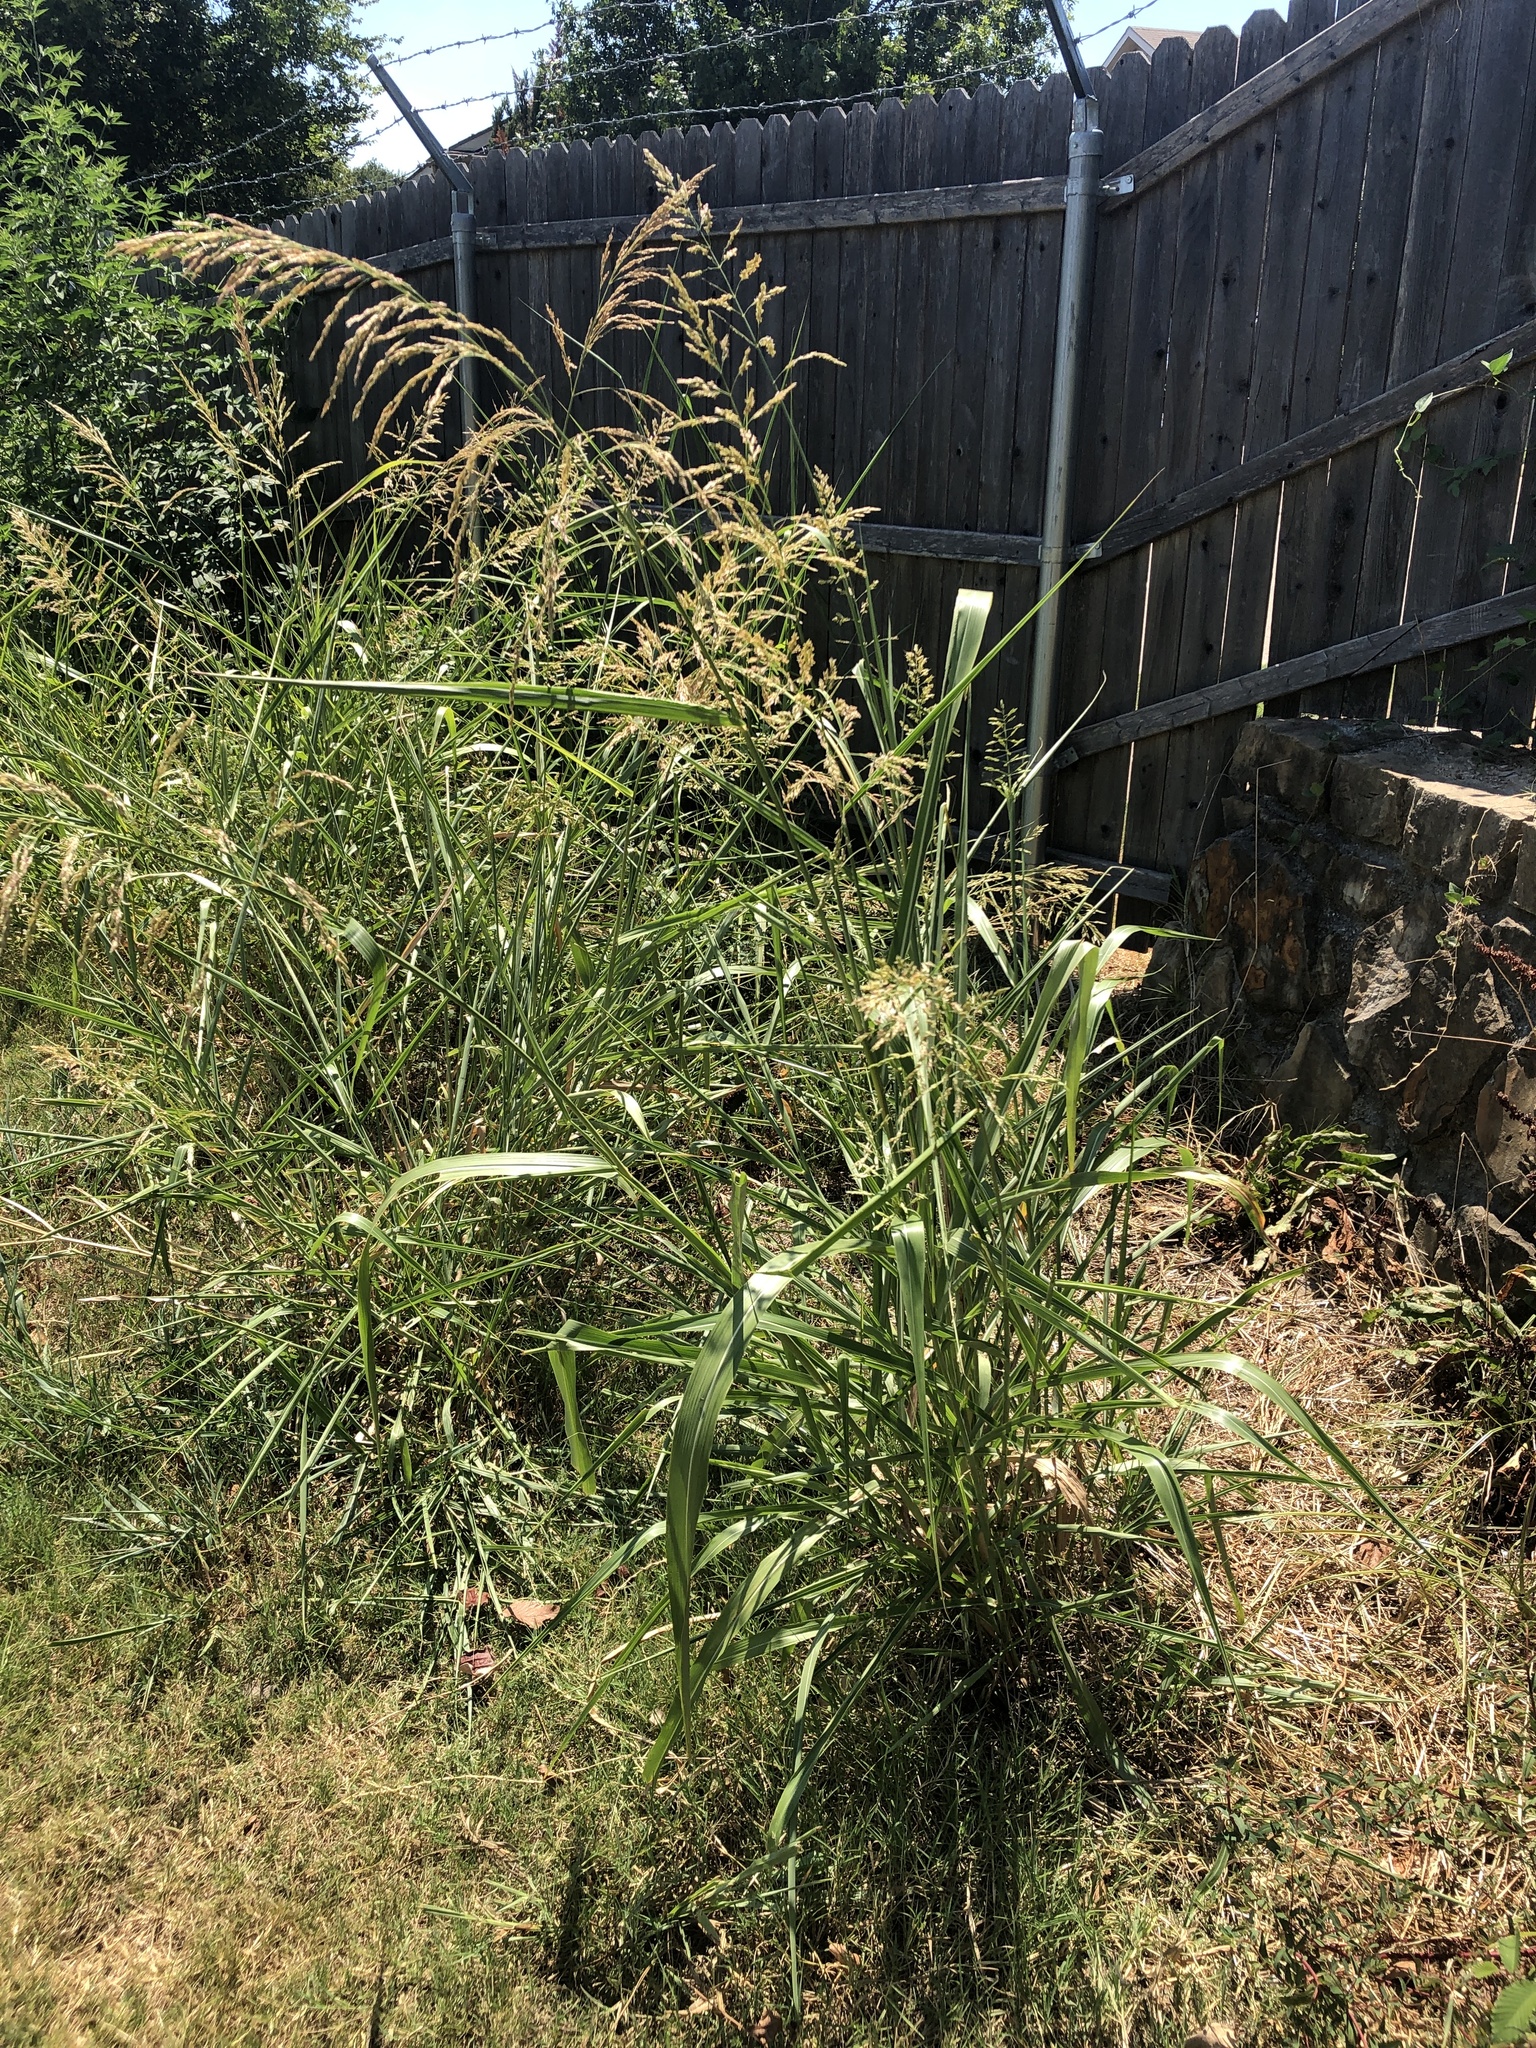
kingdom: Plantae
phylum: Tracheophyta
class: Liliopsida
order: Poales
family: Poaceae
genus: Sorghum
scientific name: Sorghum halepense
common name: Johnson-grass
